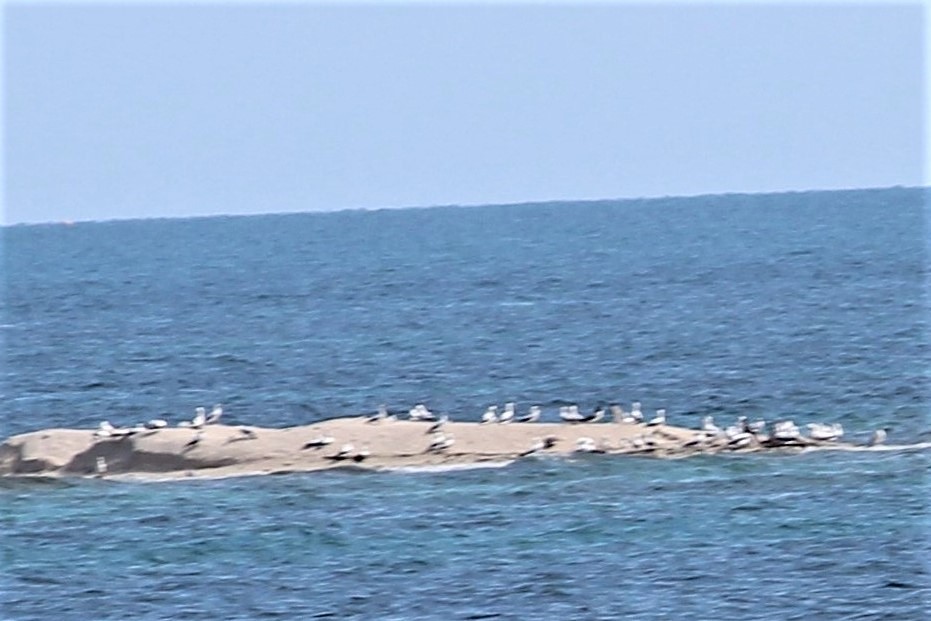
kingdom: Animalia
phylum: Chordata
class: Aves
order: Suliformes
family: Sulidae
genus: Sula
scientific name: Sula dactylatra
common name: Masked booby
